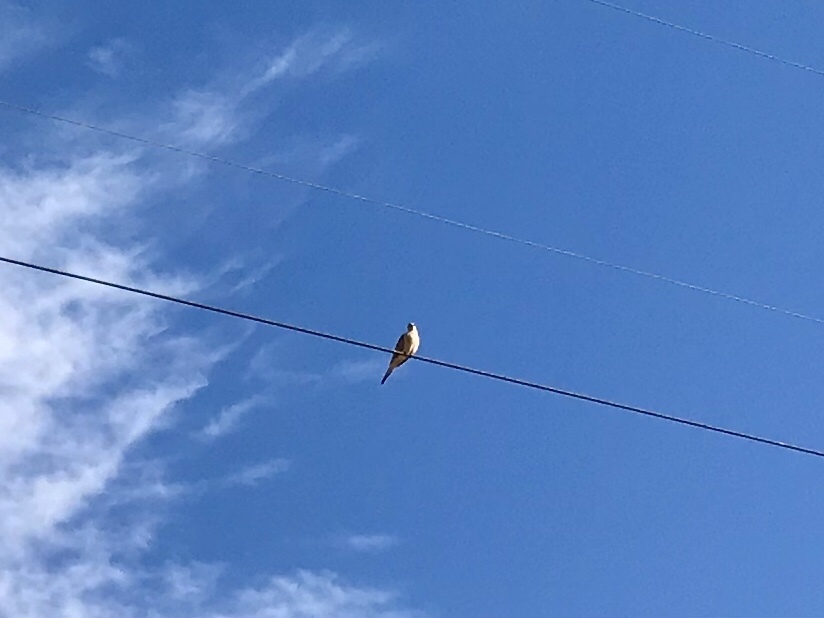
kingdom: Animalia
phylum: Chordata
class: Aves
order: Columbiformes
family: Columbidae
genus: Zenaida
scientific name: Zenaida macroura
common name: Mourning dove
